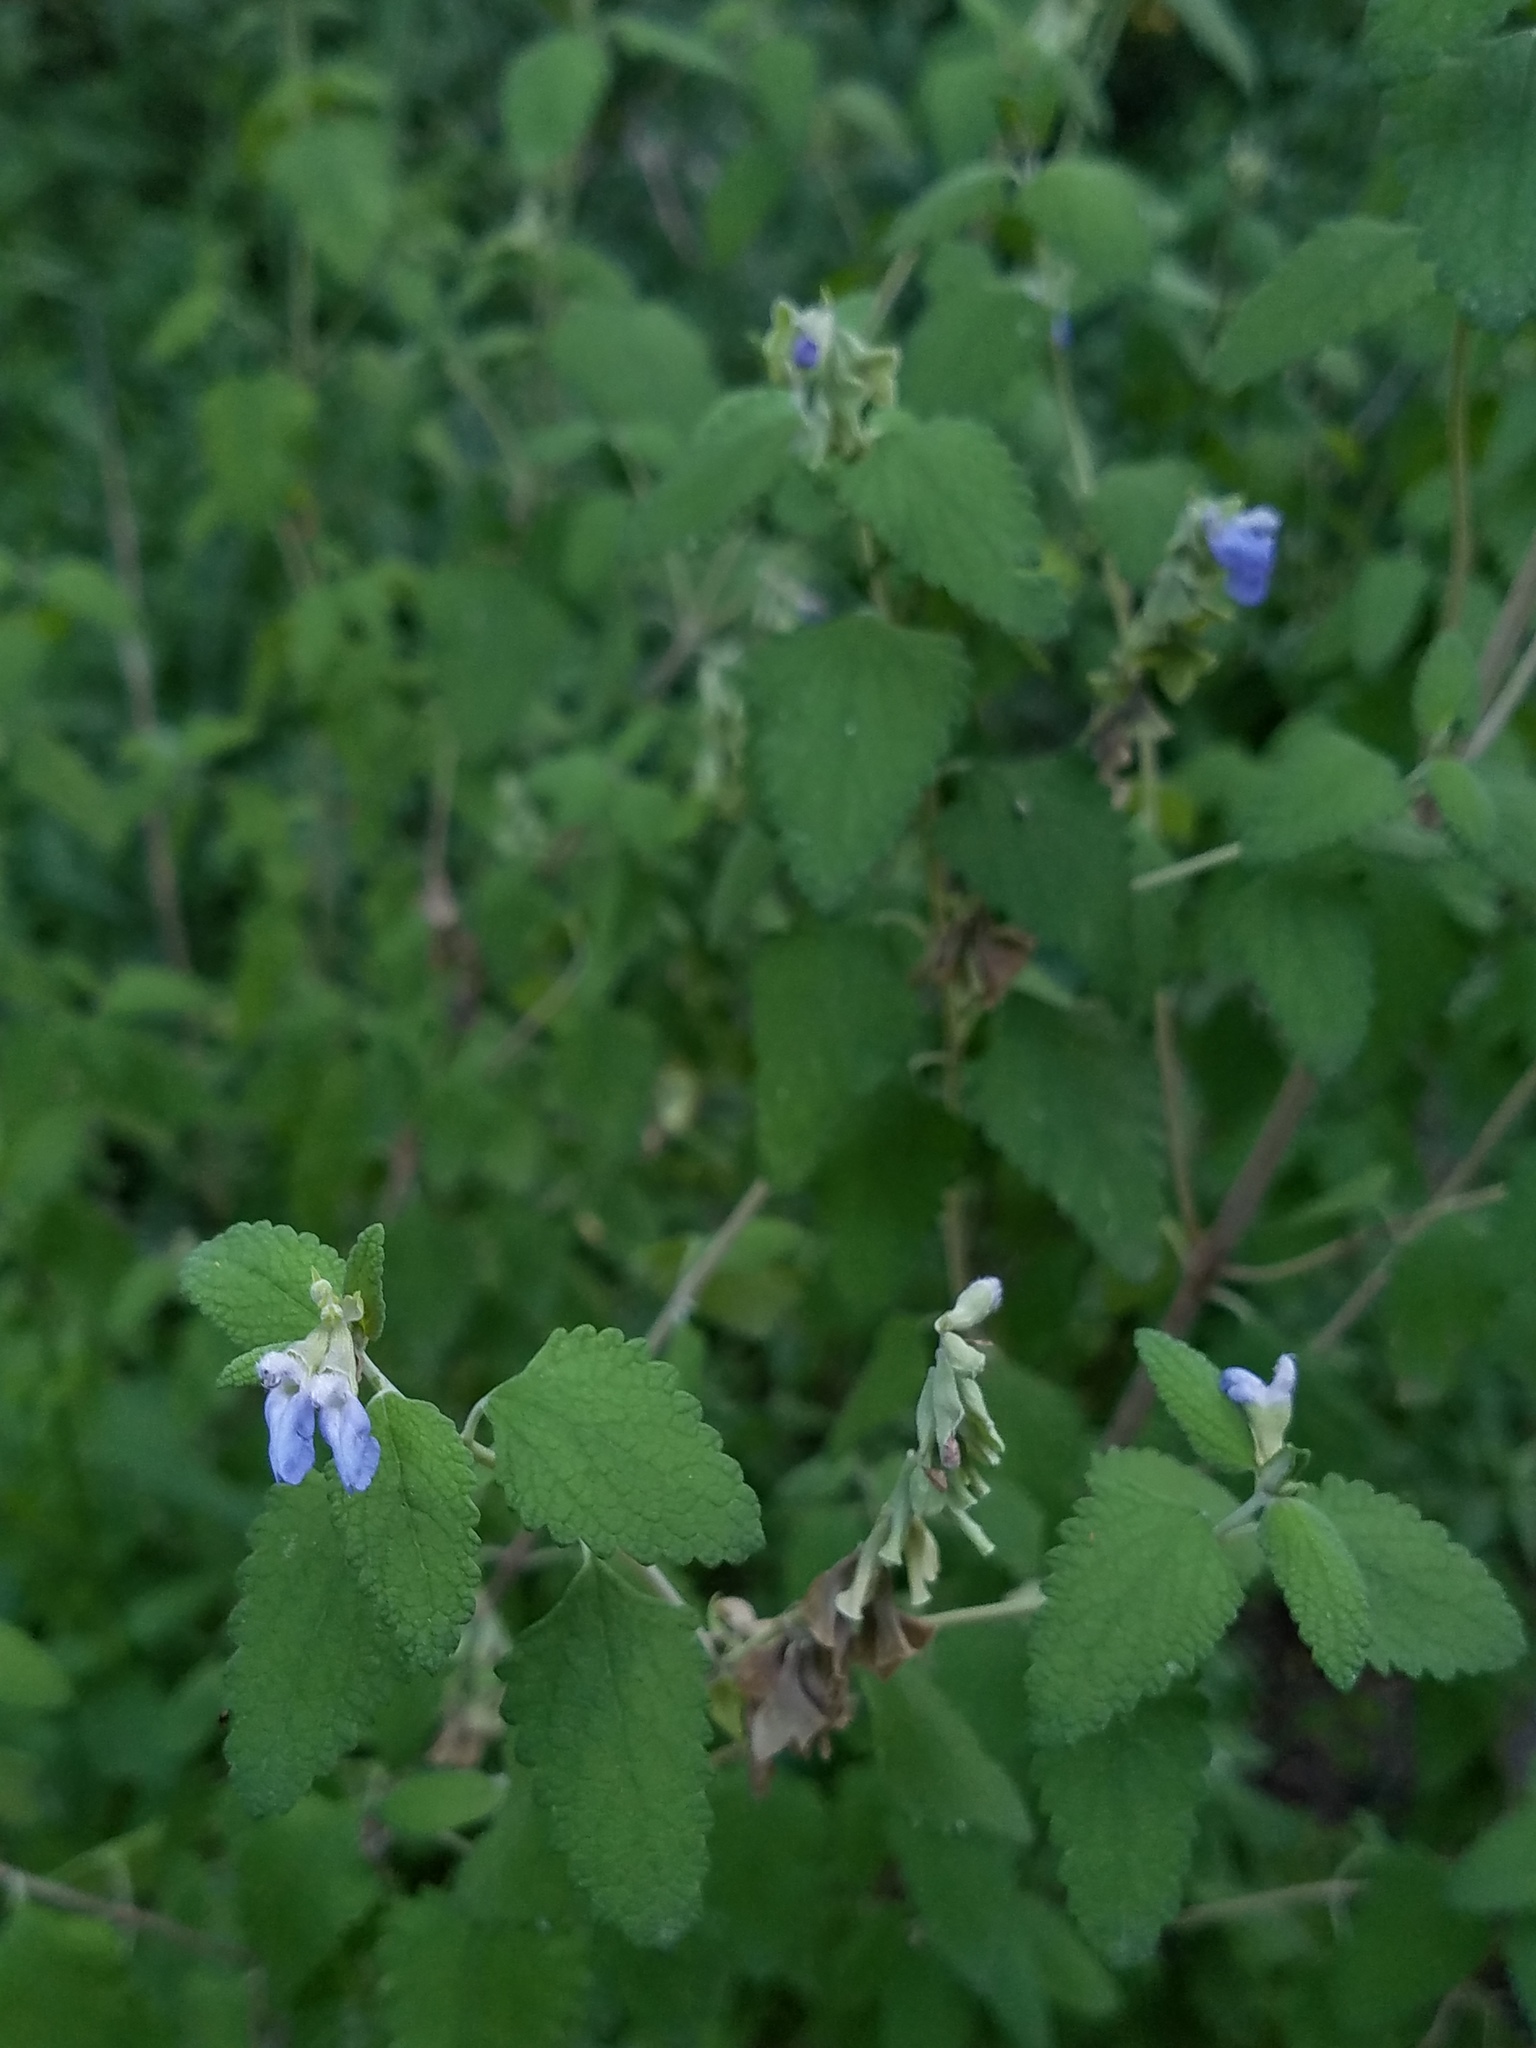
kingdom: Plantae
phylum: Tracheophyta
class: Magnoliopsida
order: Lamiales
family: Lamiaceae
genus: Salvia
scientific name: Salvia ballotiflora
